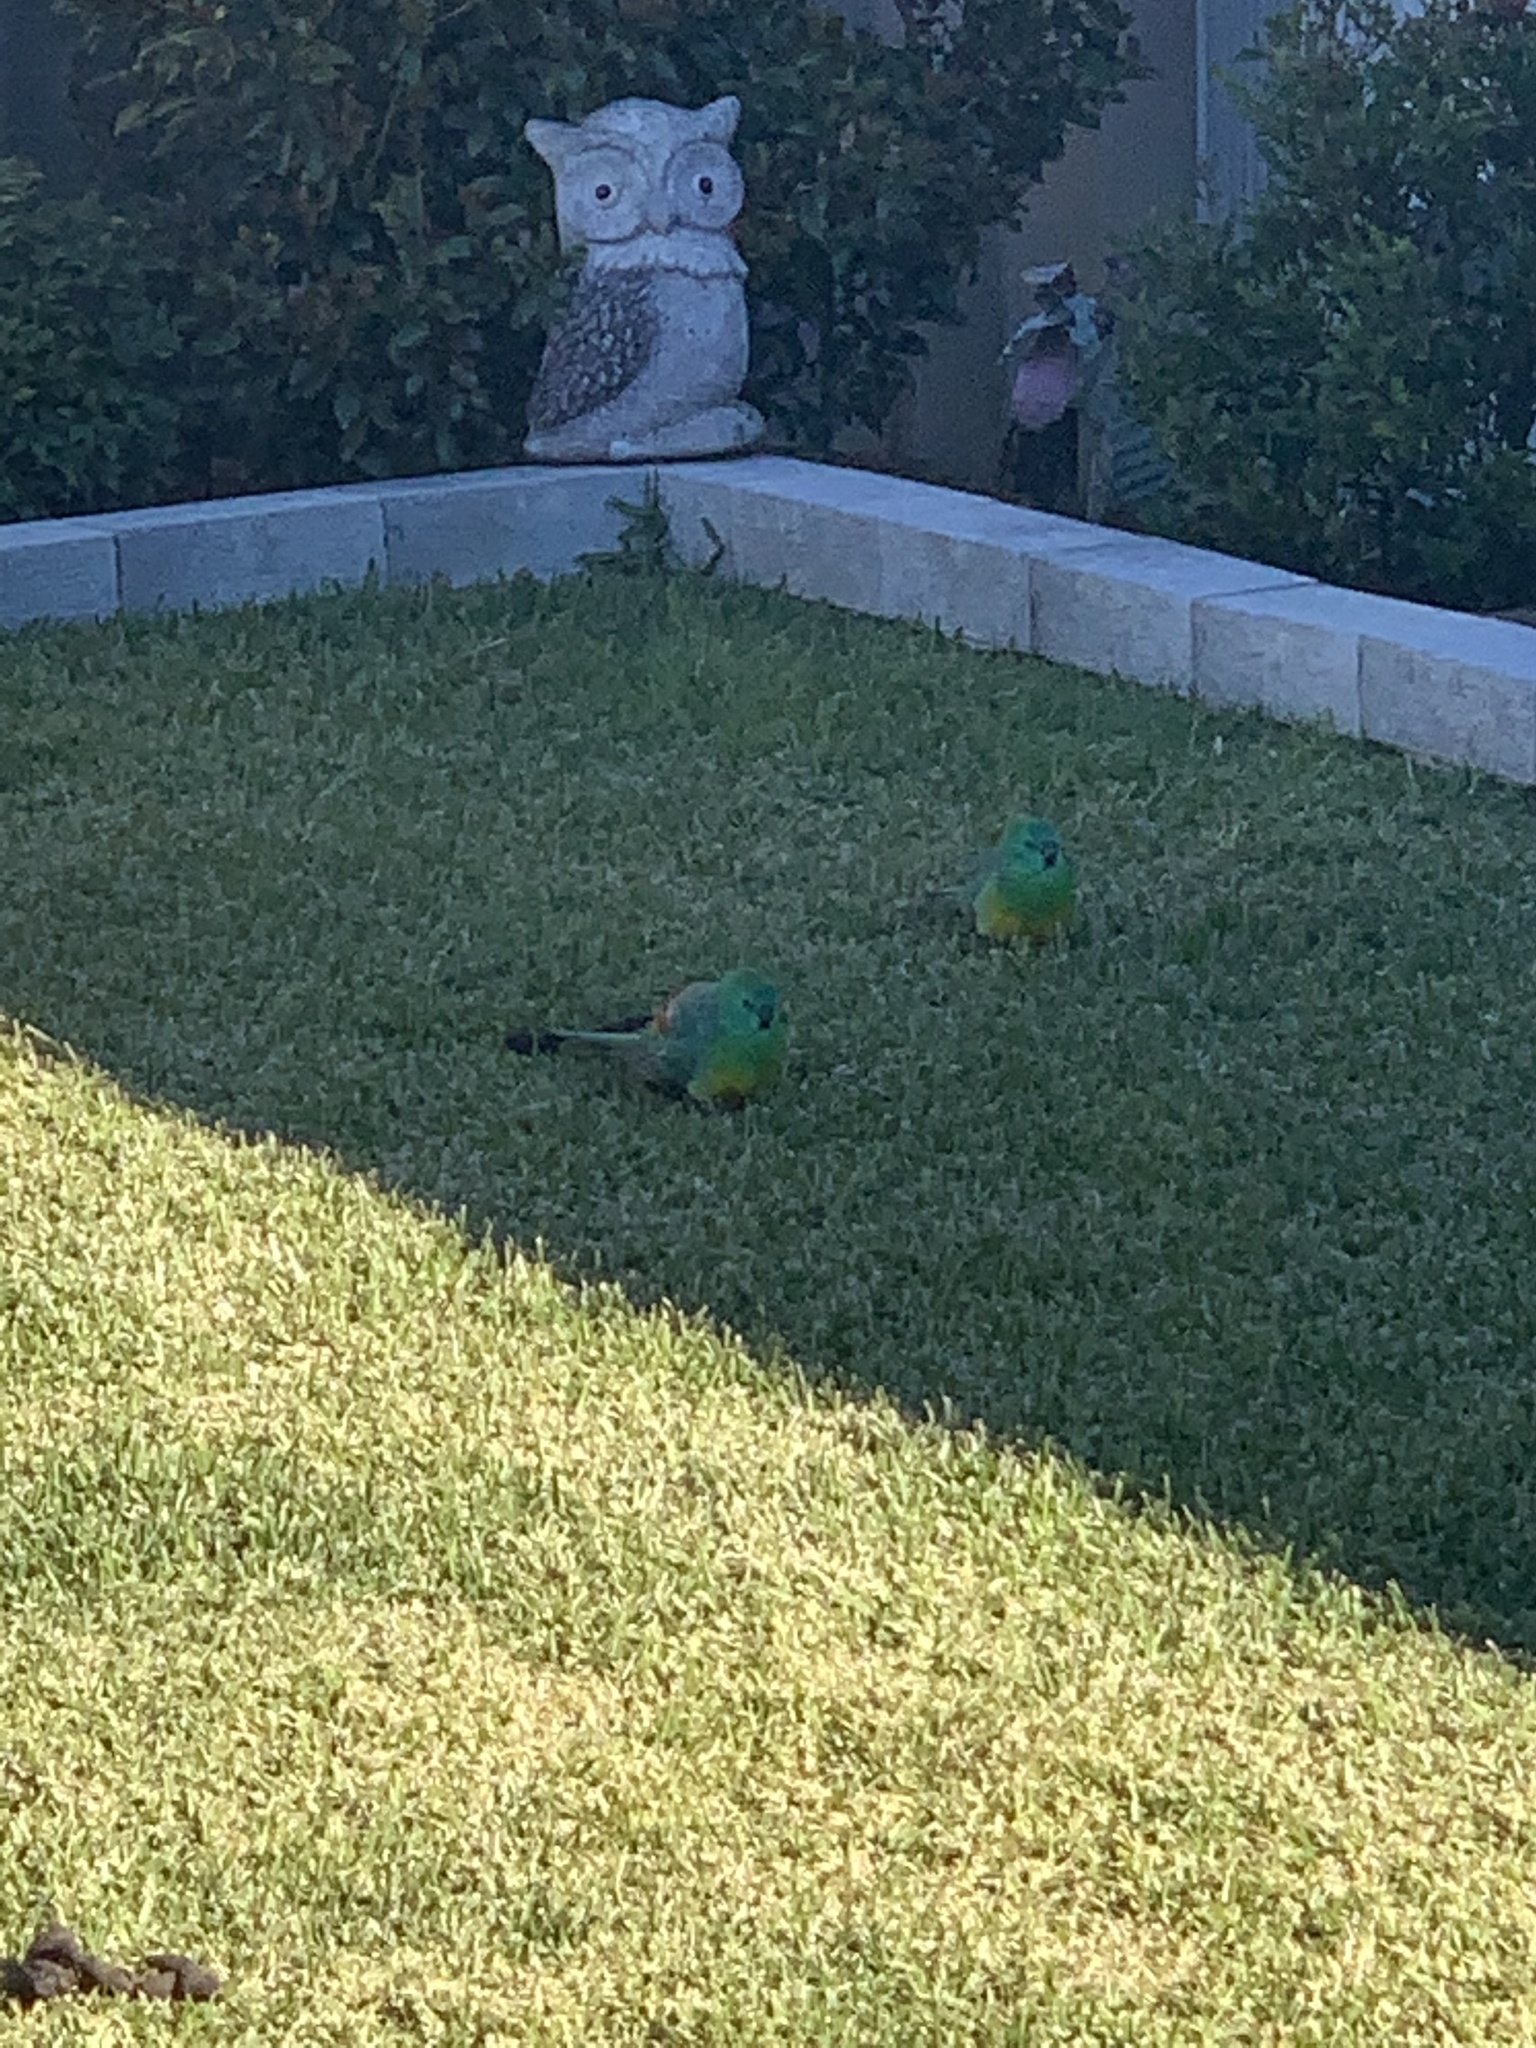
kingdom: Animalia
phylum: Chordata
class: Aves
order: Psittaciformes
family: Psittacidae
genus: Psephotus
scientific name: Psephotus haematonotus
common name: Red-rumped parrot
